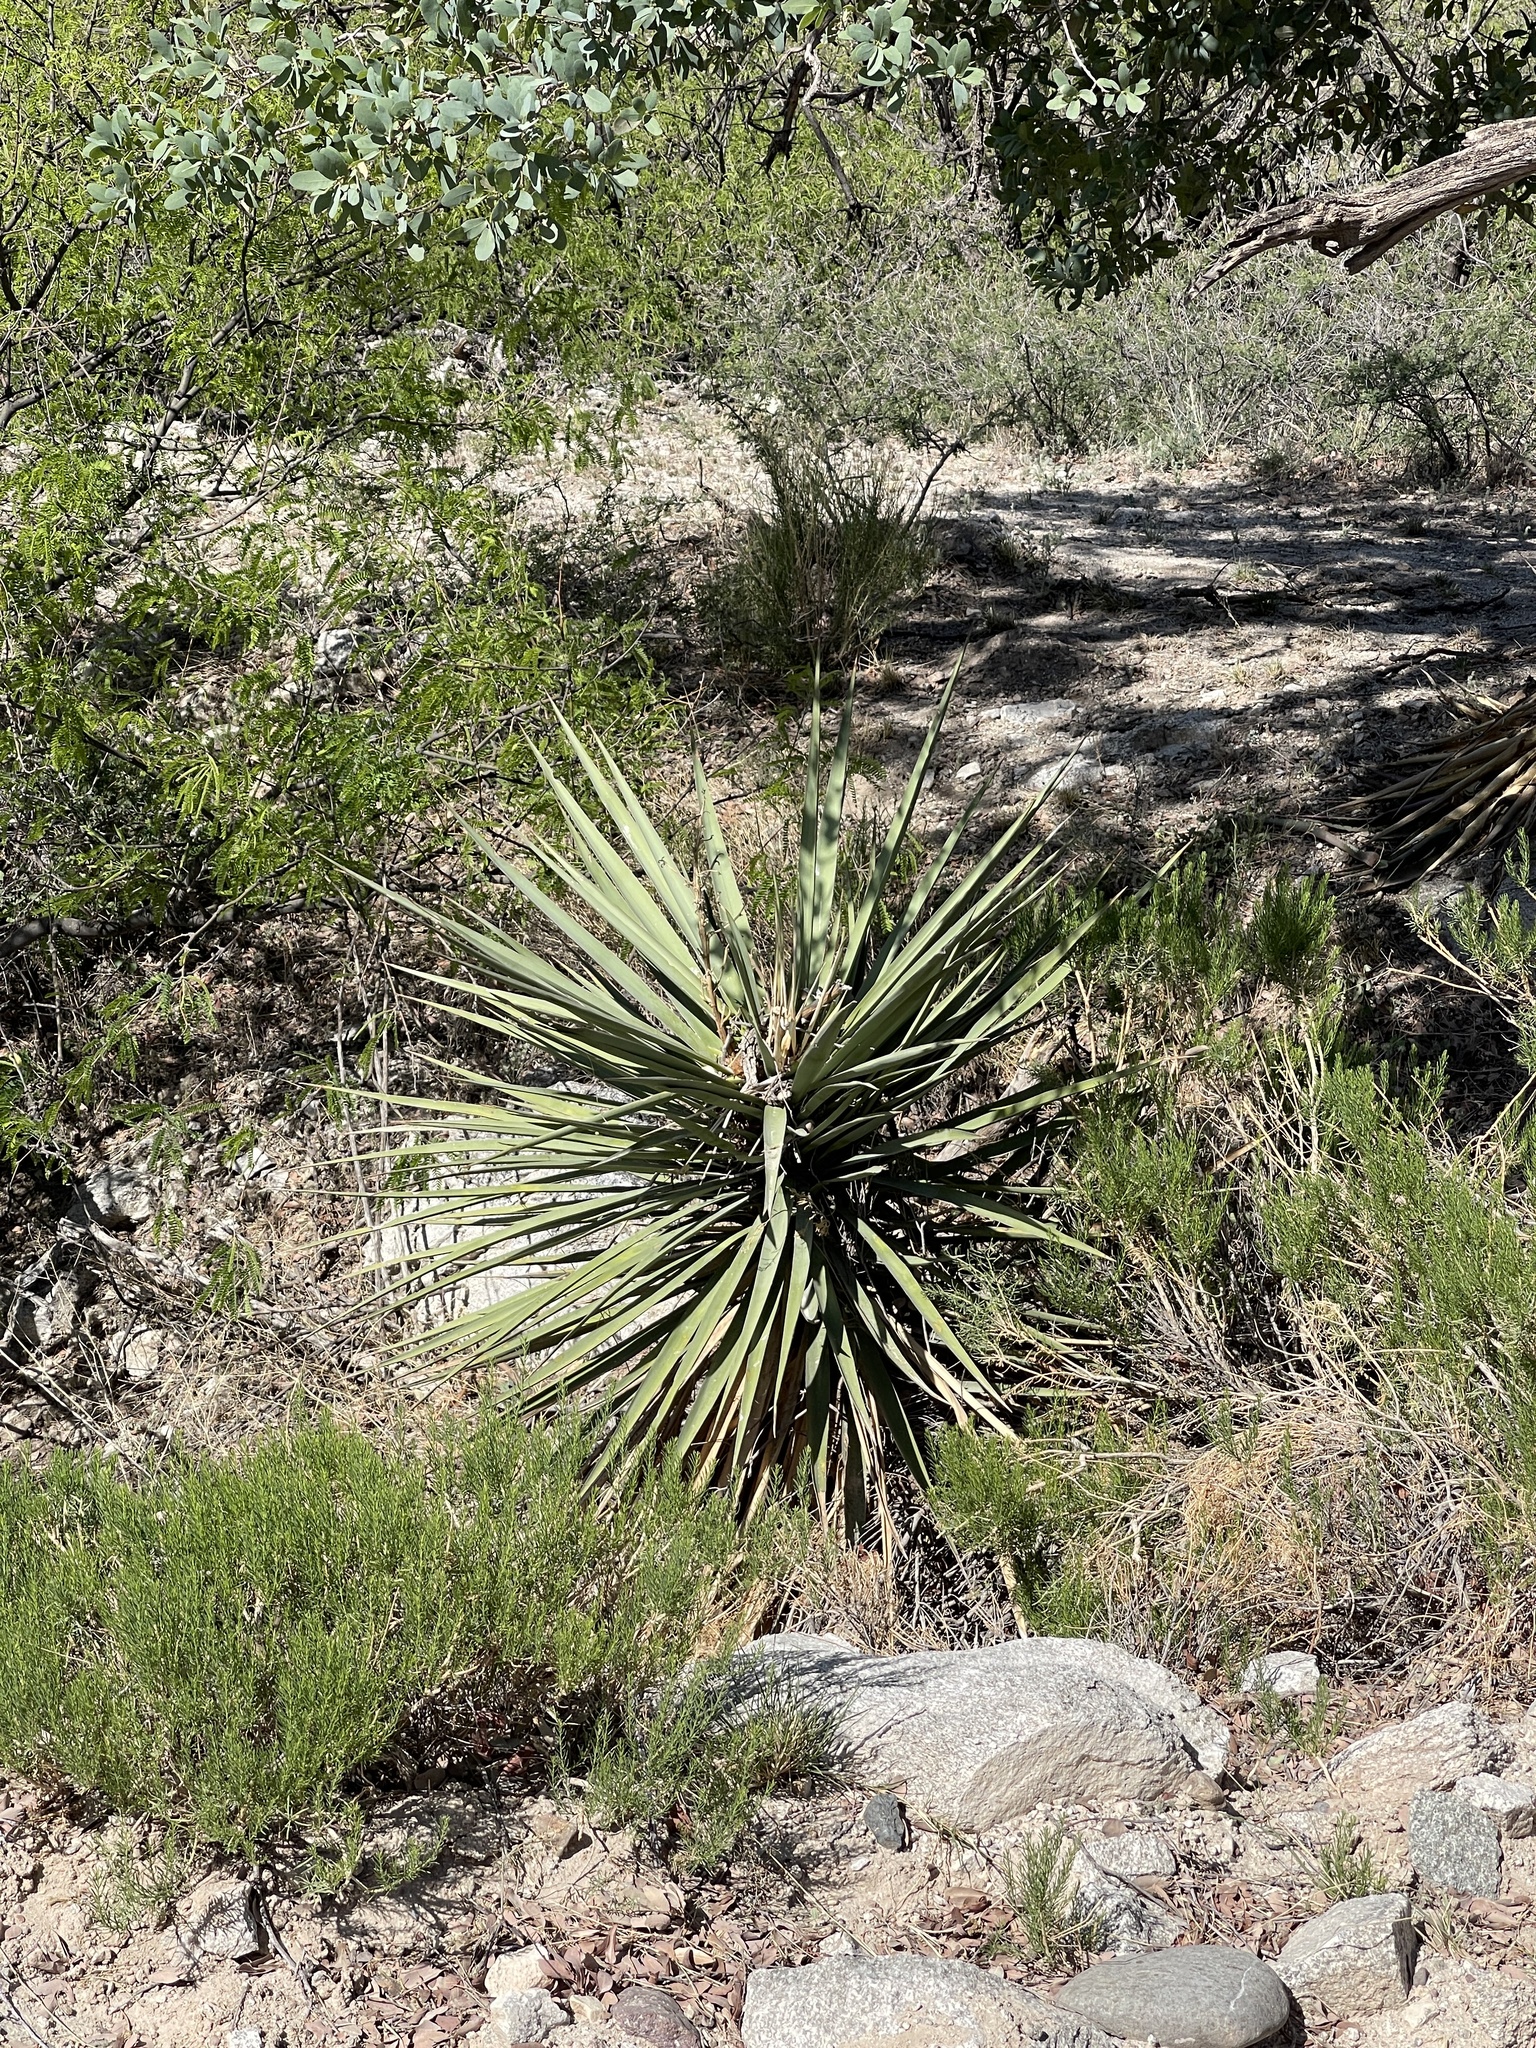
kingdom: Plantae
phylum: Tracheophyta
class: Liliopsida
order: Asparagales
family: Asparagaceae
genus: Yucca
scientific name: Yucca madrensis
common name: Hoary yucca
